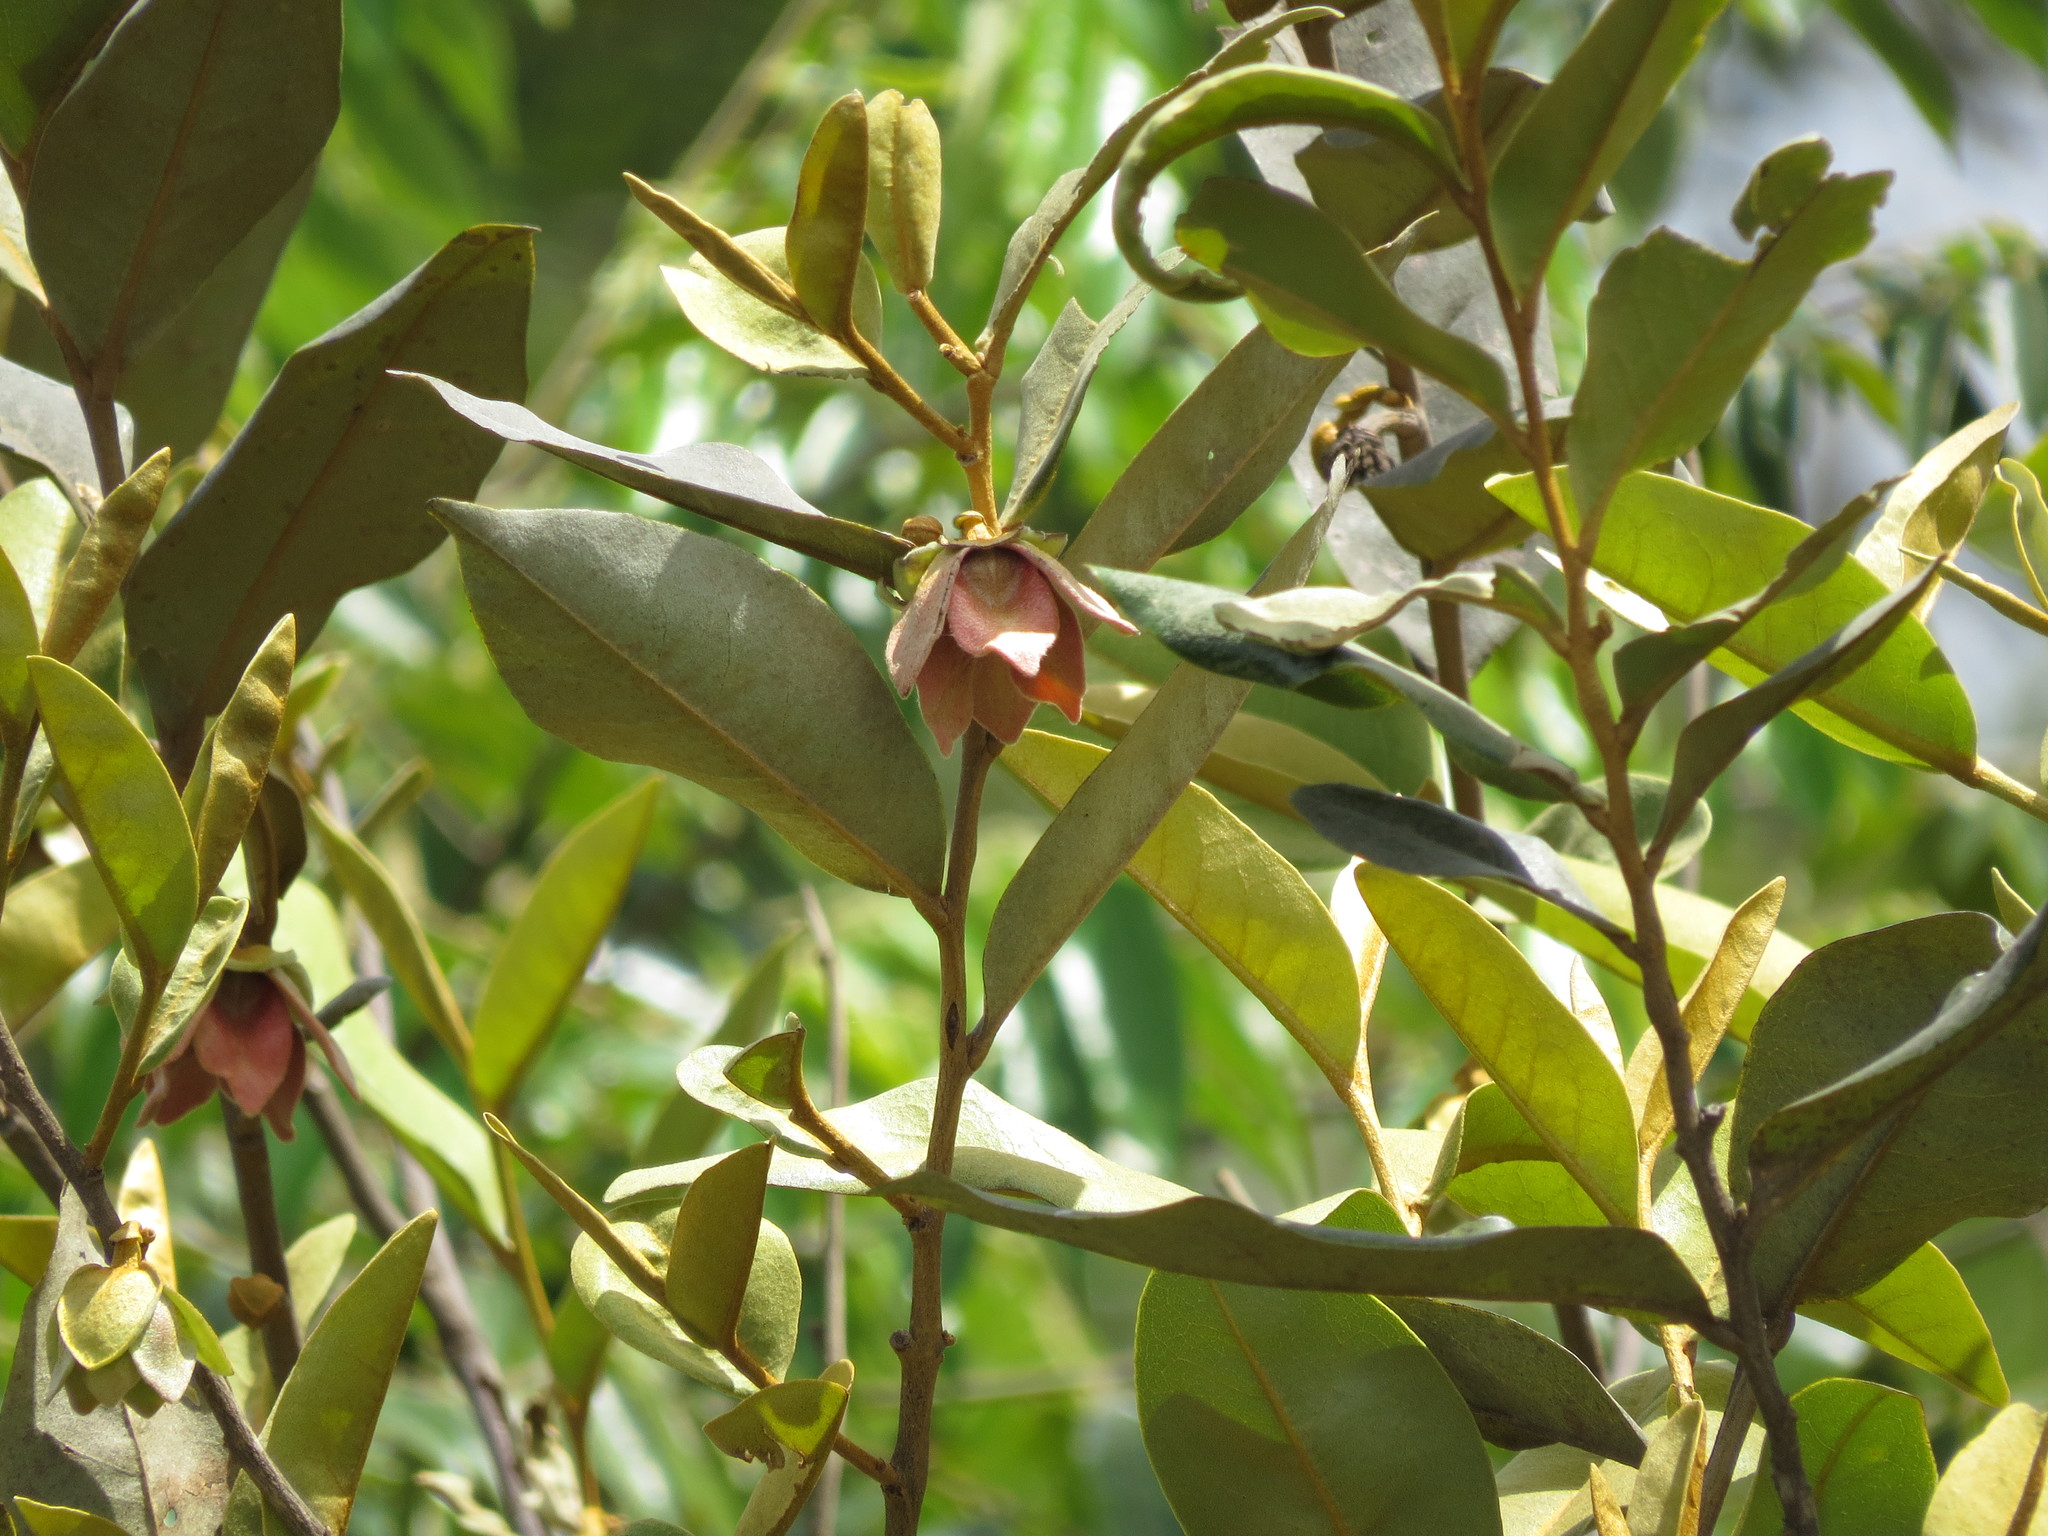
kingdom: Plantae
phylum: Tracheophyta
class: Magnoliopsida
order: Magnoliales
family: Annonaceae
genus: Duguetia
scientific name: Duguetia furfuracea
